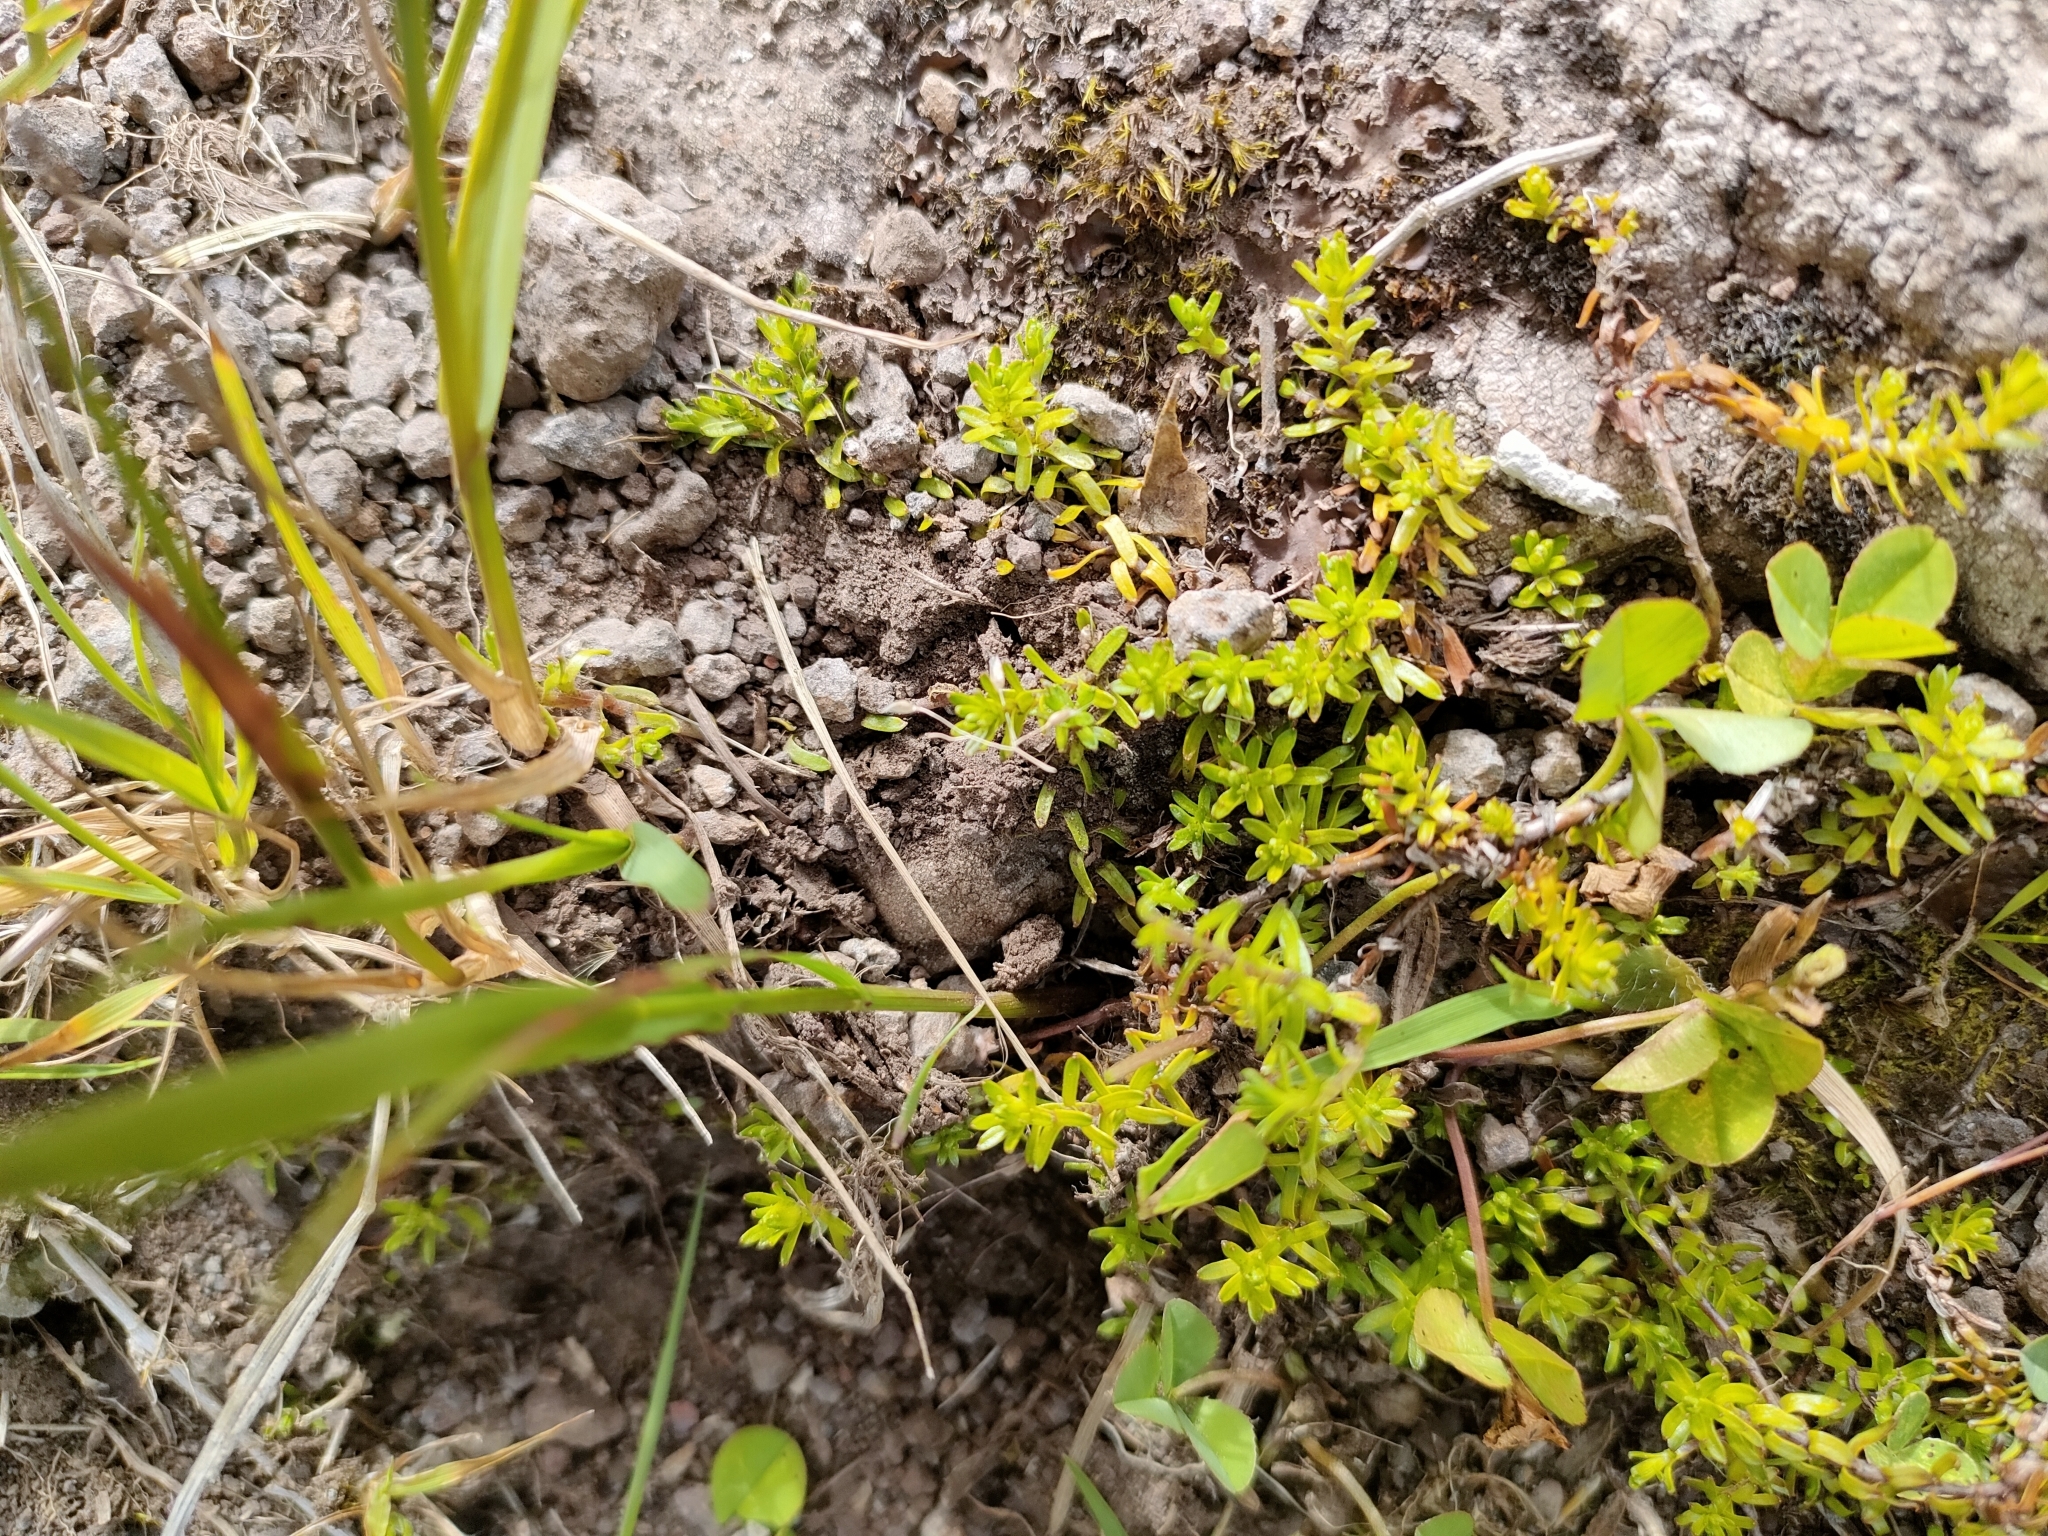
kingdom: Plantae
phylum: Tracheophyta
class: Magnoliopsida
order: Asterales
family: Asteraceae
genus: Raoulia
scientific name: Raoulia glabra
